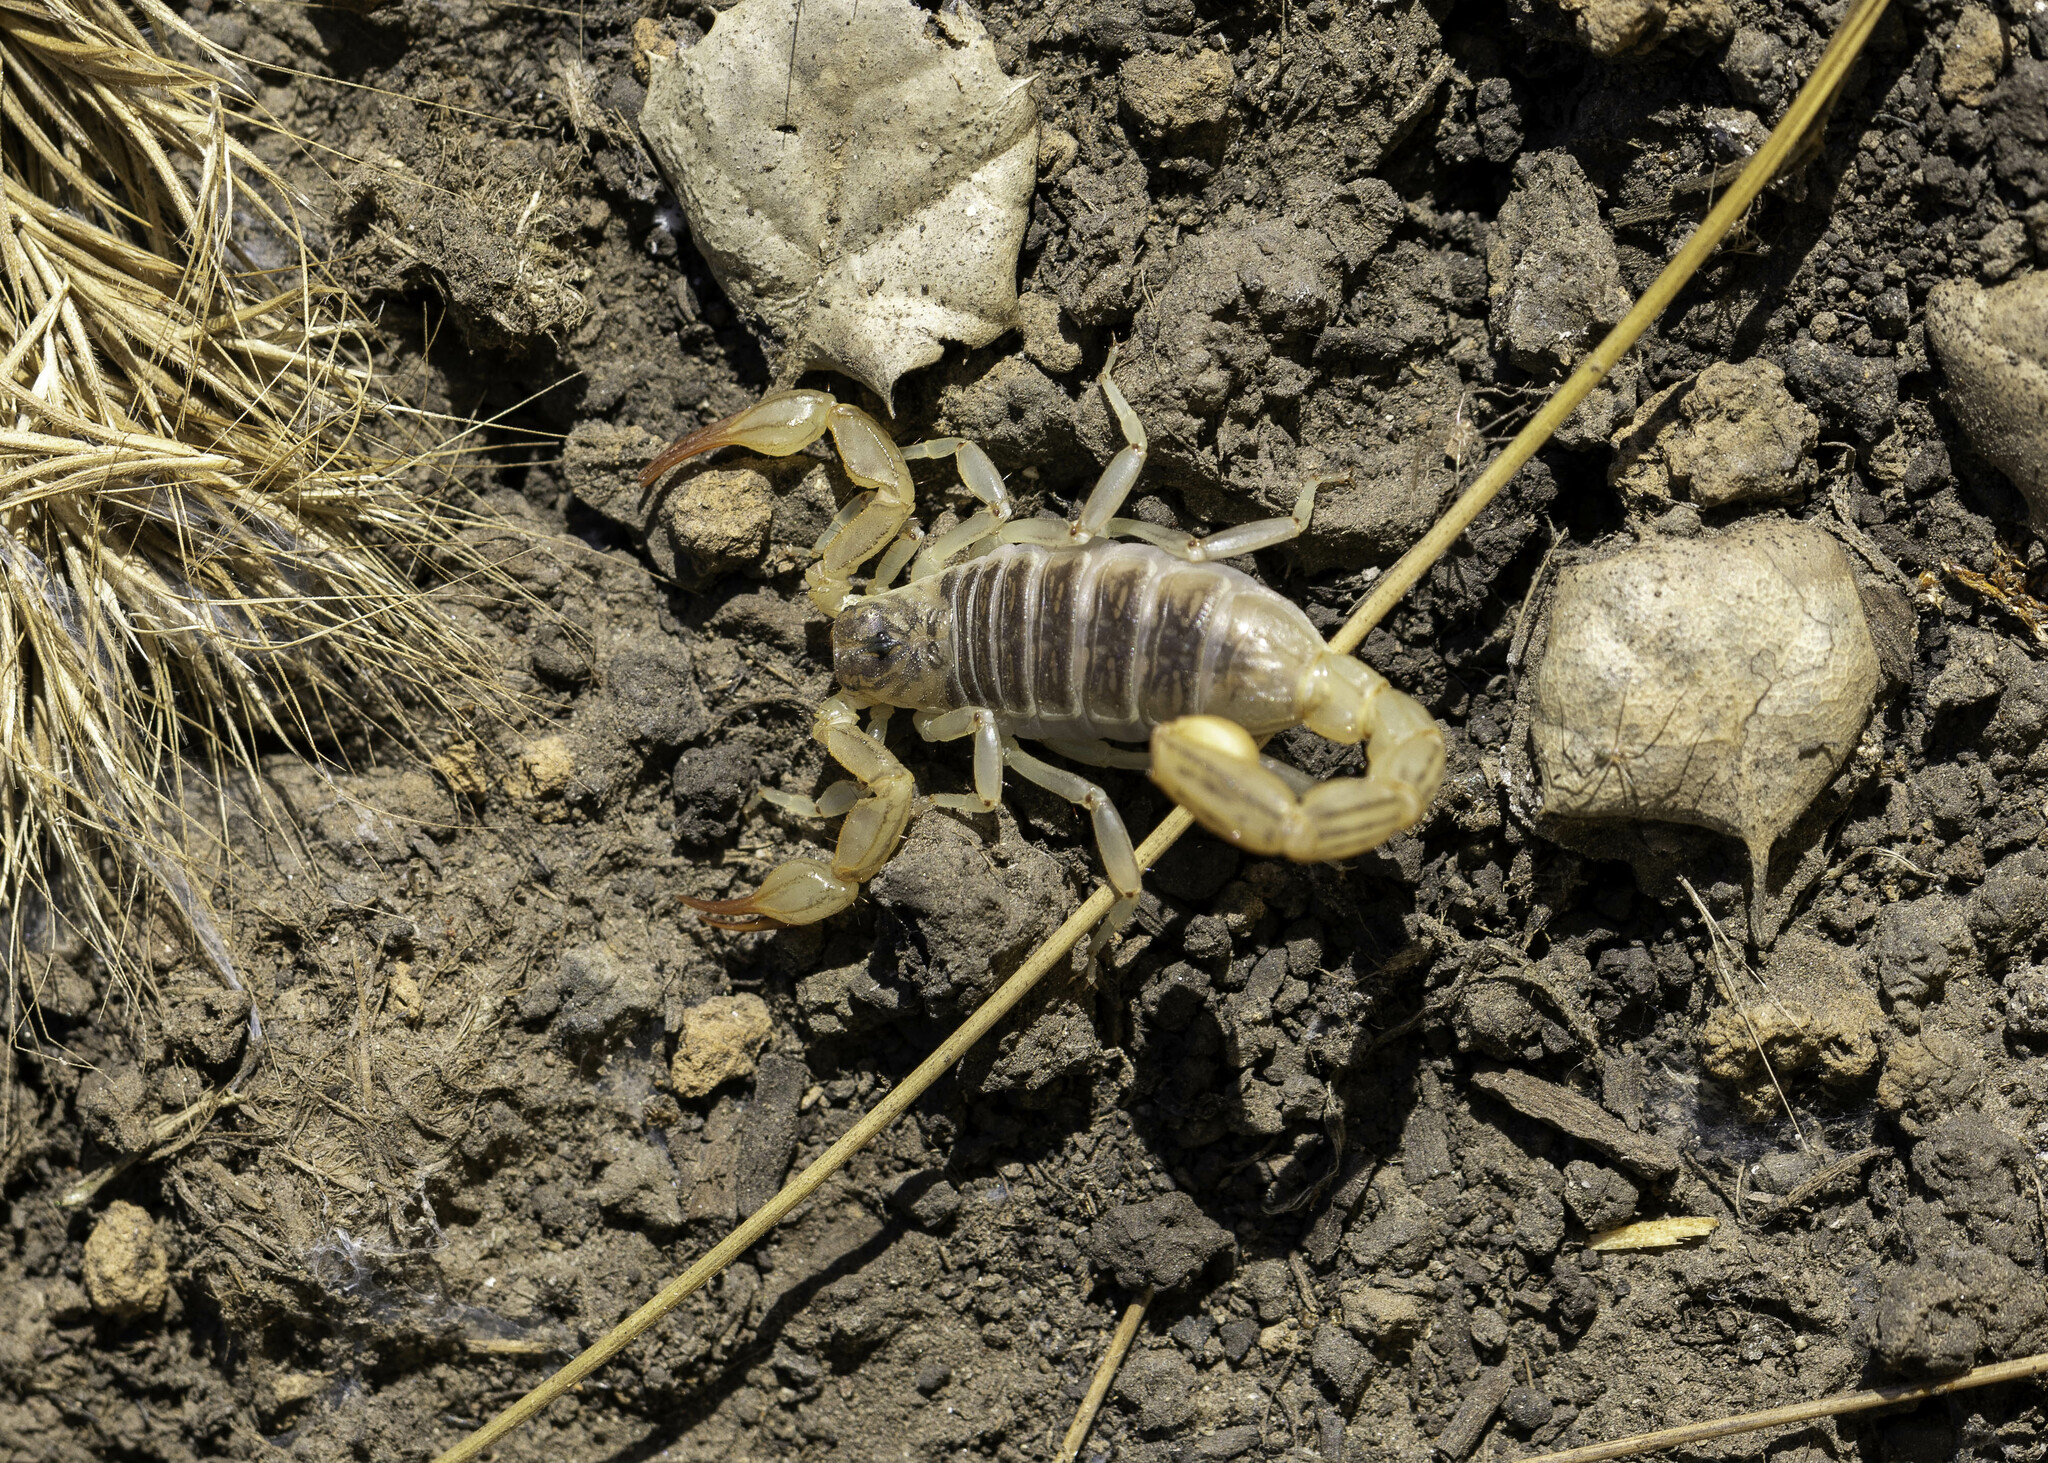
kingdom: Animalia
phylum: Arthropoda
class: Arachnida
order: Scorpiones
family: Vaejovidae
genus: Paruroctonus
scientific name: Paruroctonus silvestrii
